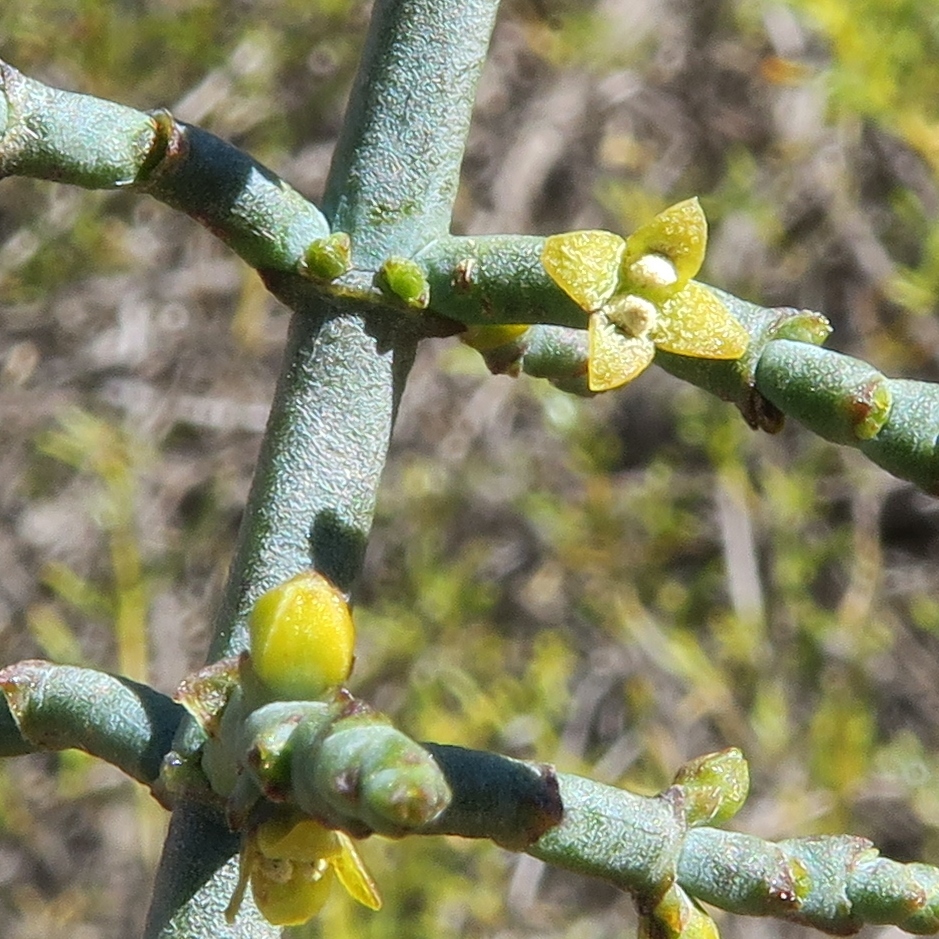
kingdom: Plantae
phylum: Tracheophyta
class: Magnoliopsida
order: Santalales
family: Viscaceae
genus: Viscum
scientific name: Viscum capense
